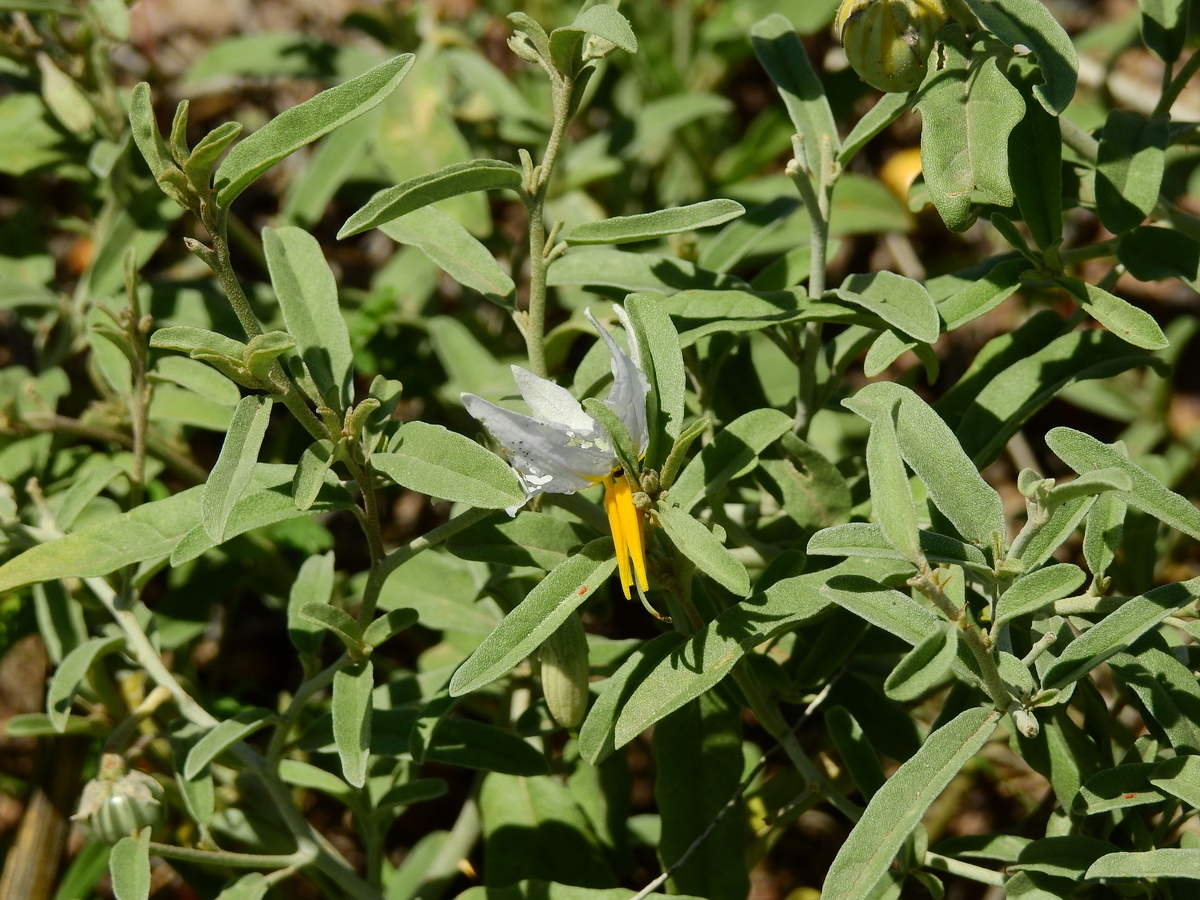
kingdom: Plantae
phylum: Tracheophyta
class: Magnoliopsida
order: Solanales
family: Solanaceae
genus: Solanum
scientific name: Solanum elaeagnifolium
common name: Silverleaf nightshade
